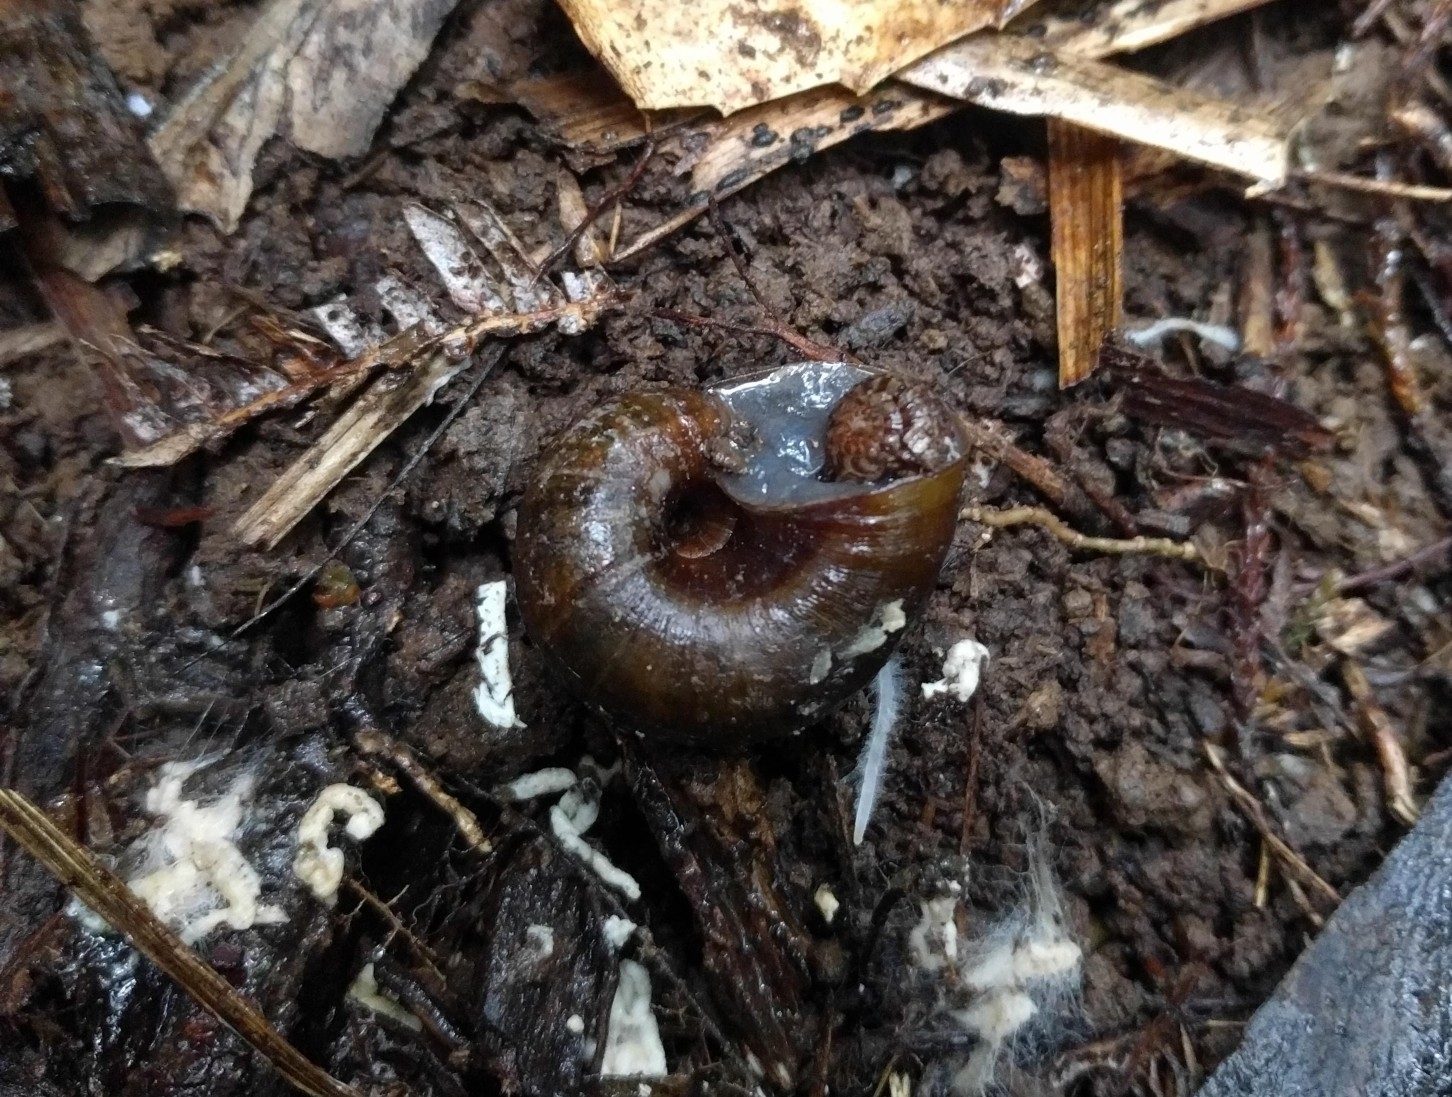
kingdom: Animalia
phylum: Mollusca
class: Gastropoda
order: Stylommatophora
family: Rhytididae
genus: Rhytida
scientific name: Rhytida greenwoodi
